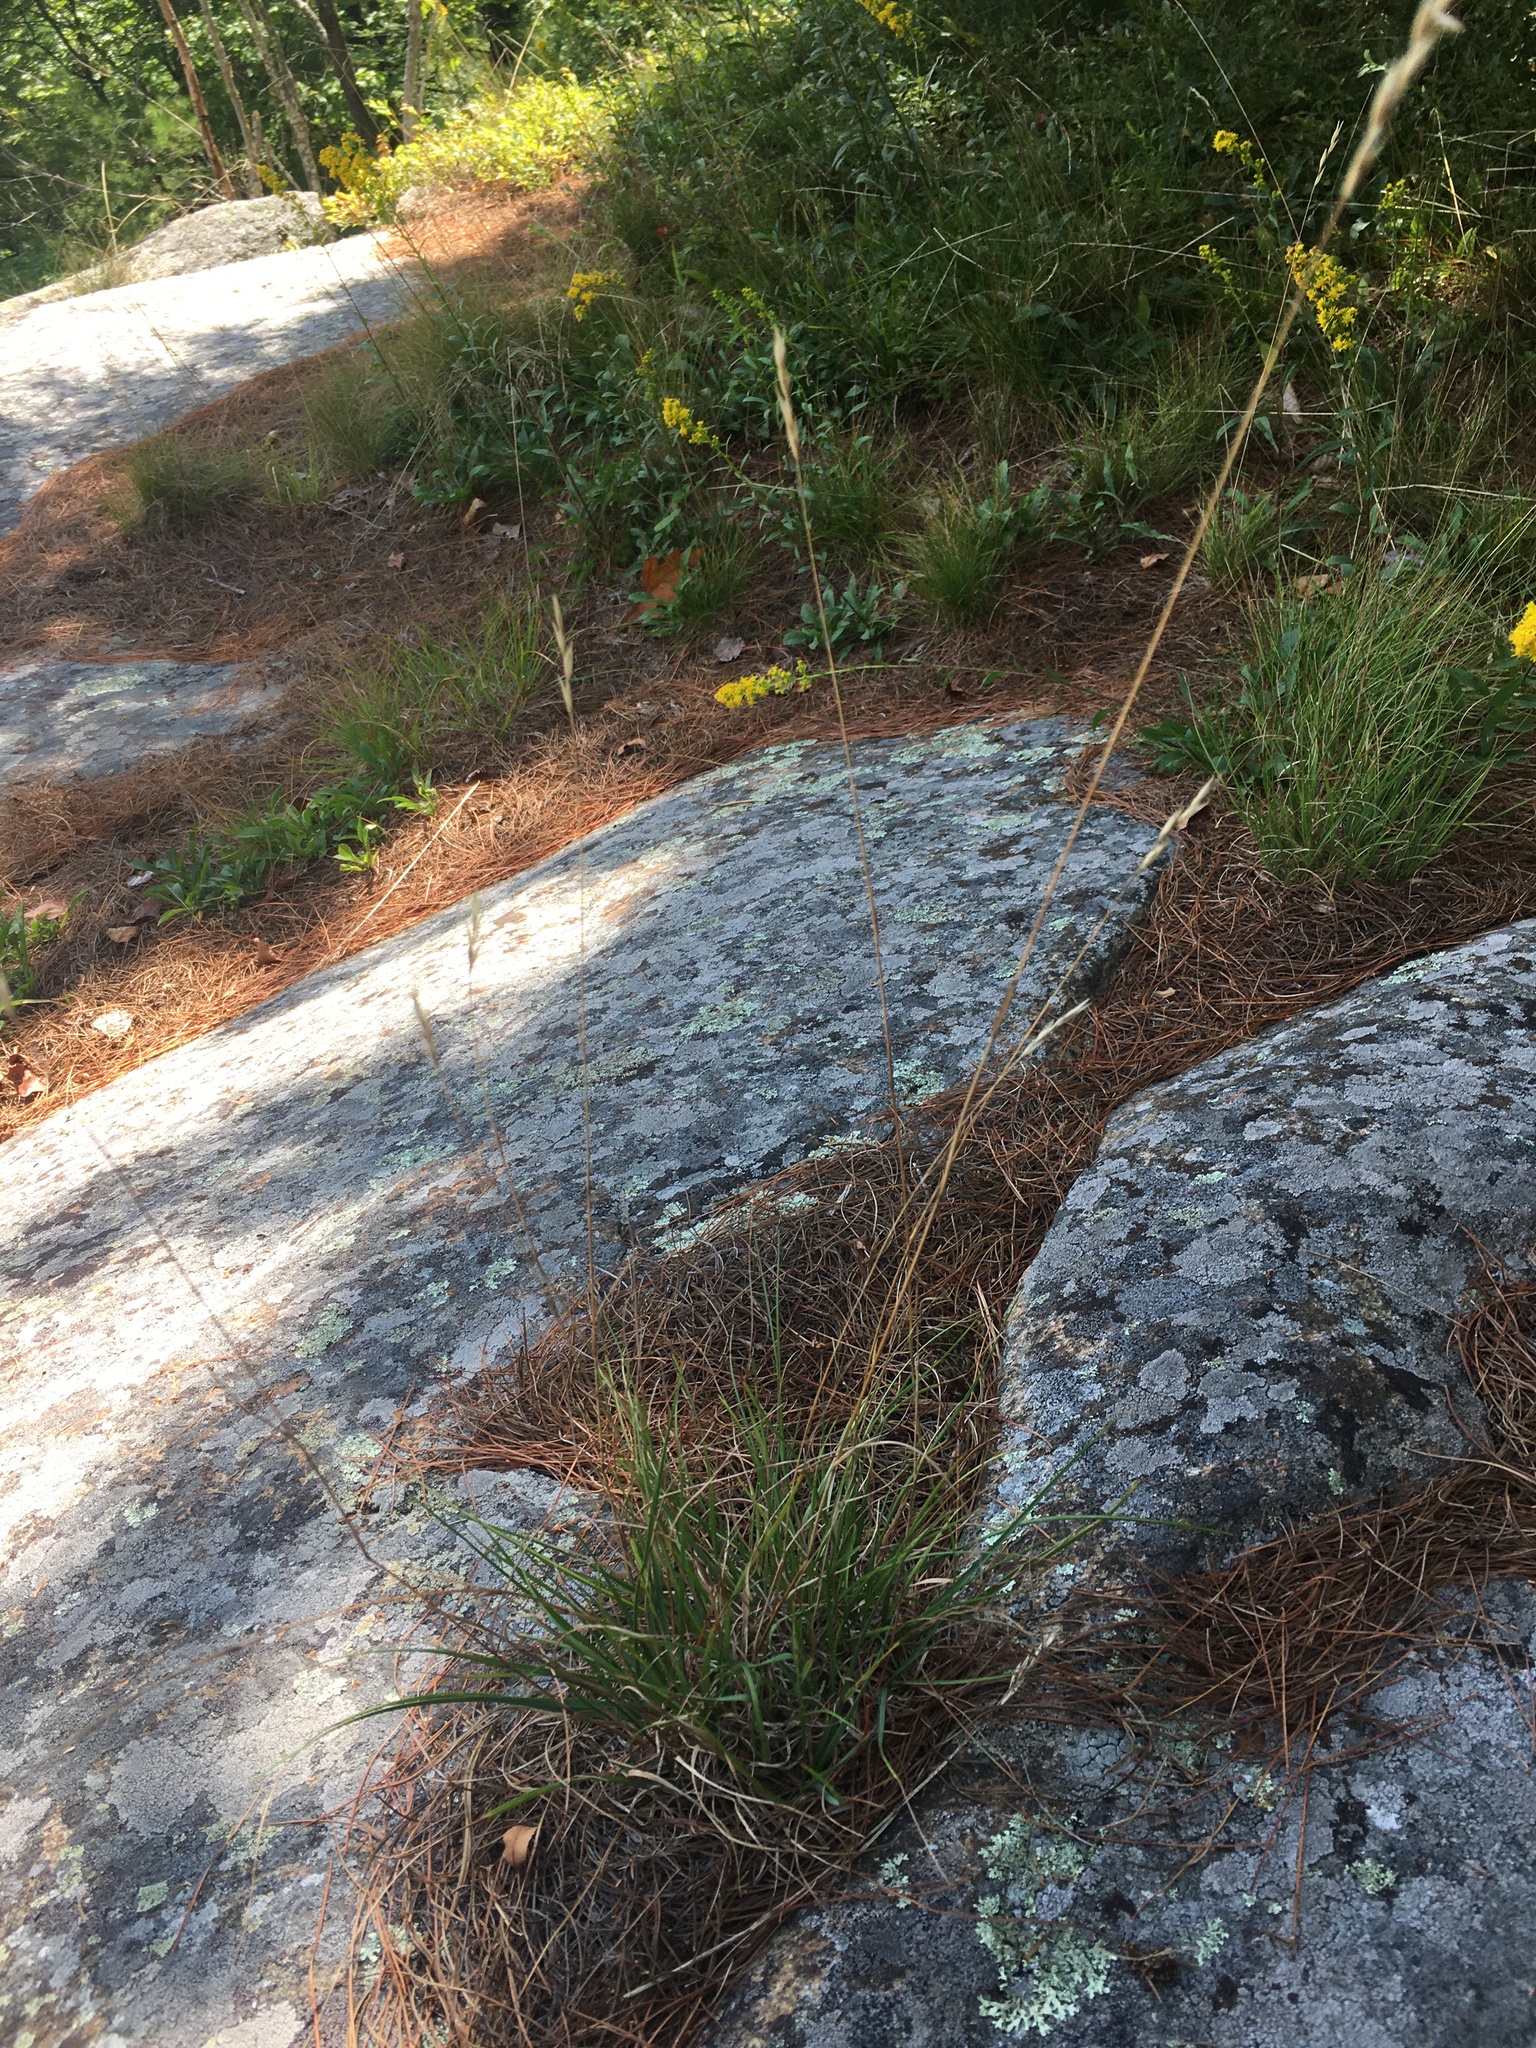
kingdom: Plantae
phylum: Tracheophyta
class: Liliopsida
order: Poales
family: Poaceae
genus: Danthonia
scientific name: Danthonia spicata
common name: Common wild oatgrass
